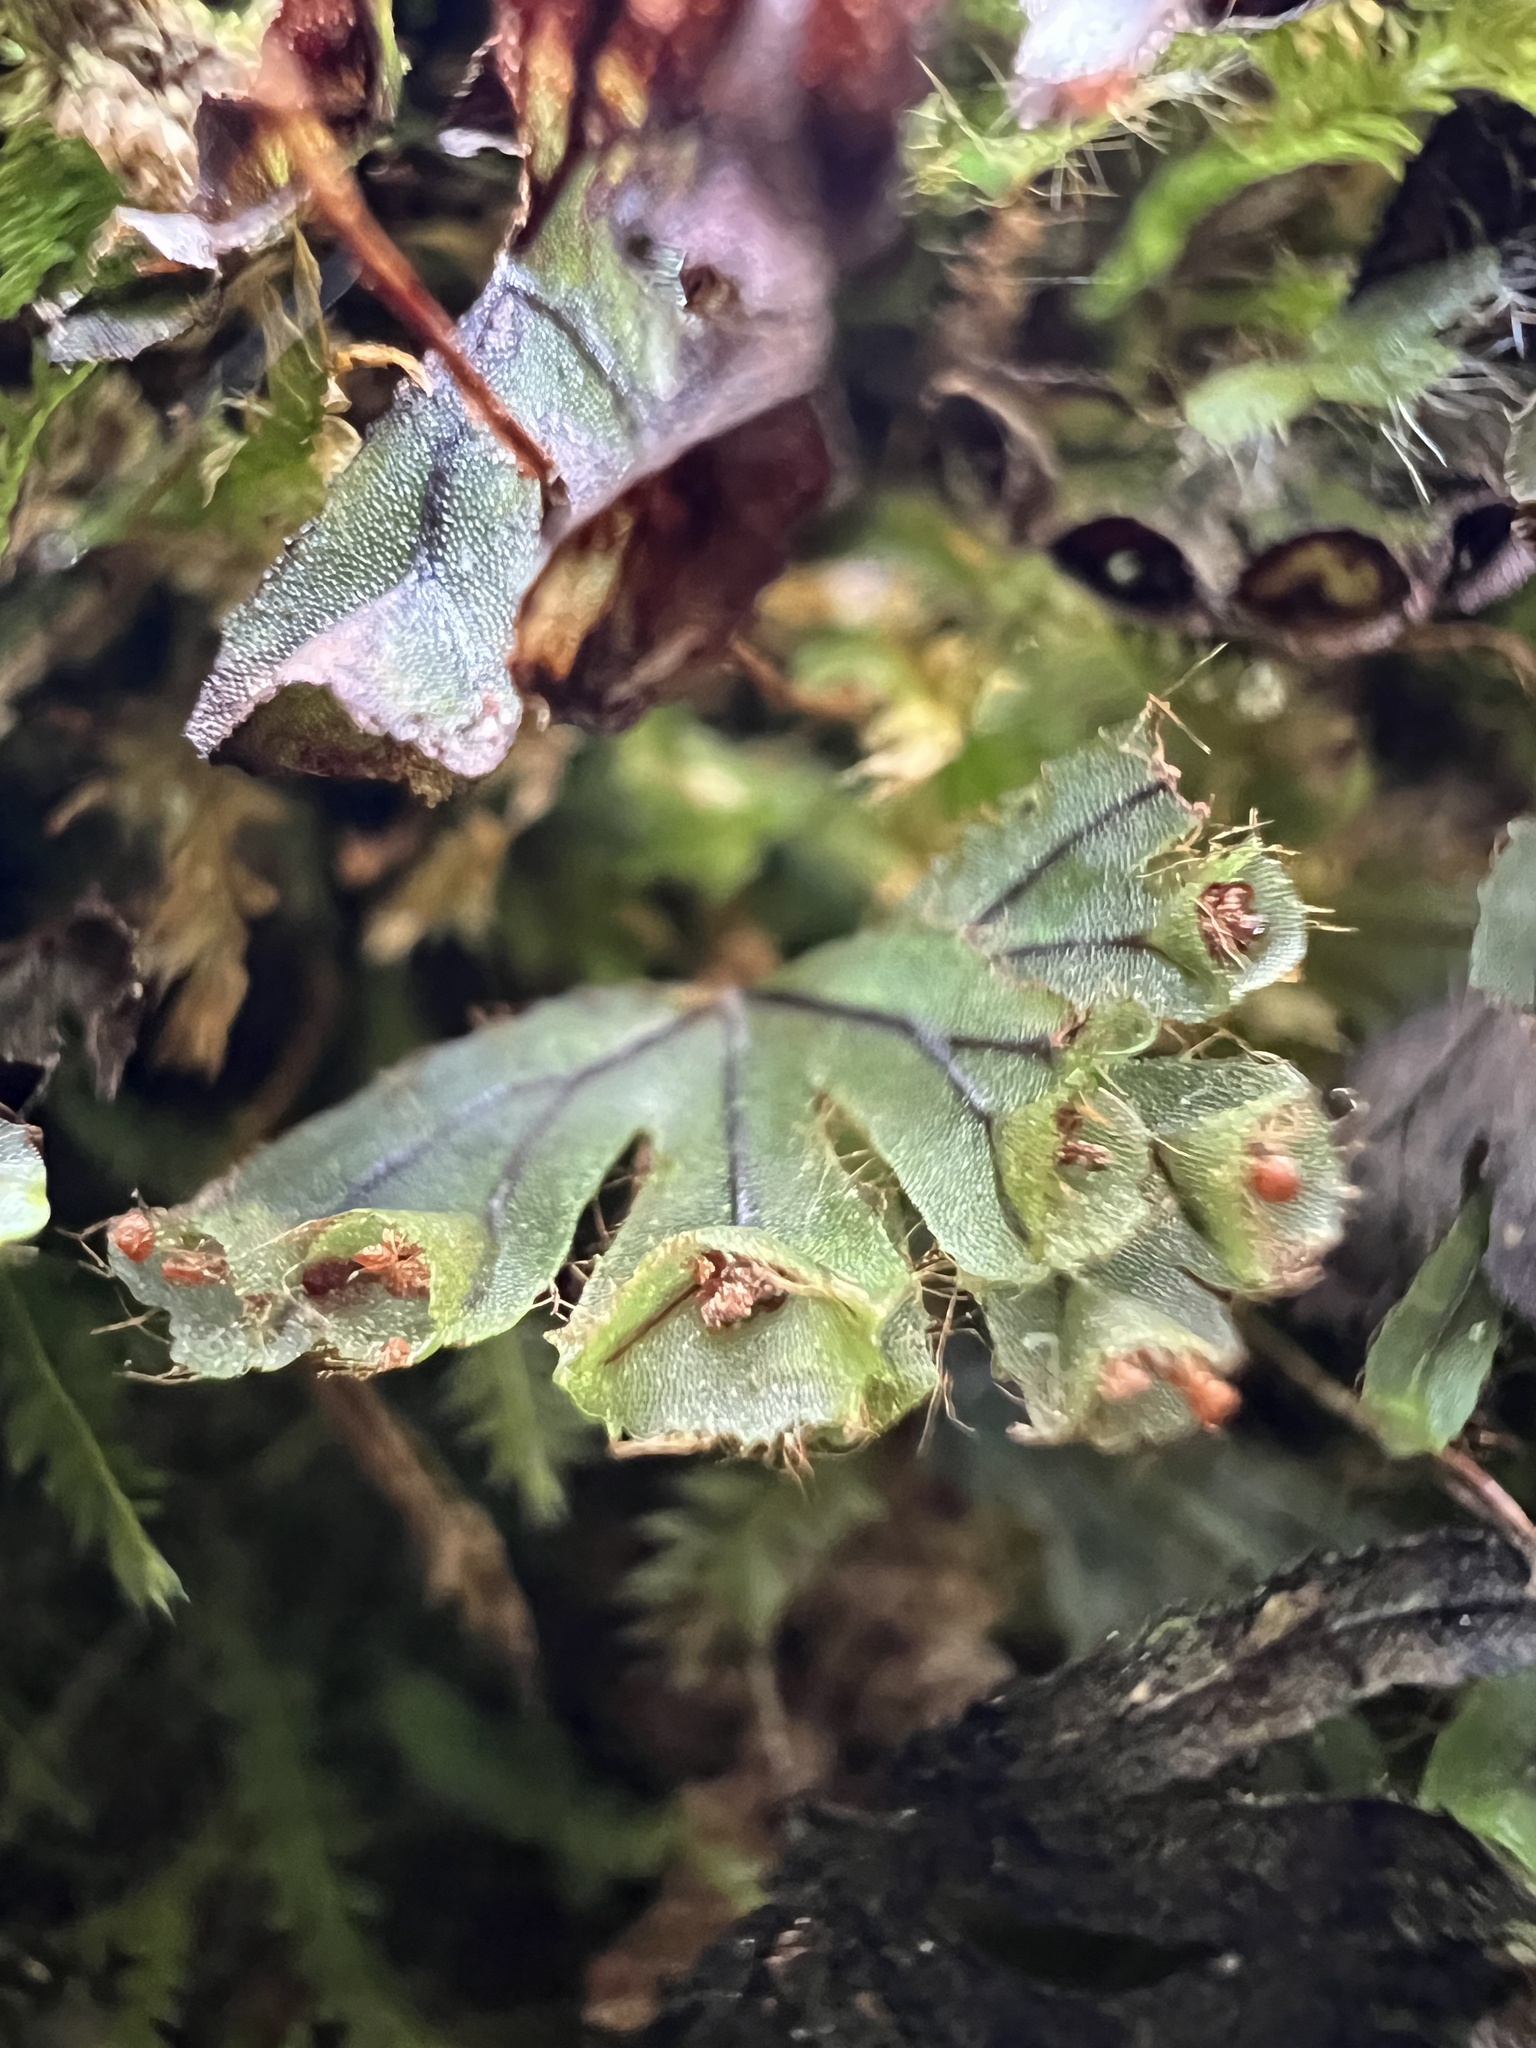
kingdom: Plantae
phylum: Tracheophyta
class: Polypodiopsida
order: Hymenophyllales
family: Hymenophyllaceae
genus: Hymenophyllum
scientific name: Hymenophyllum lyallii
